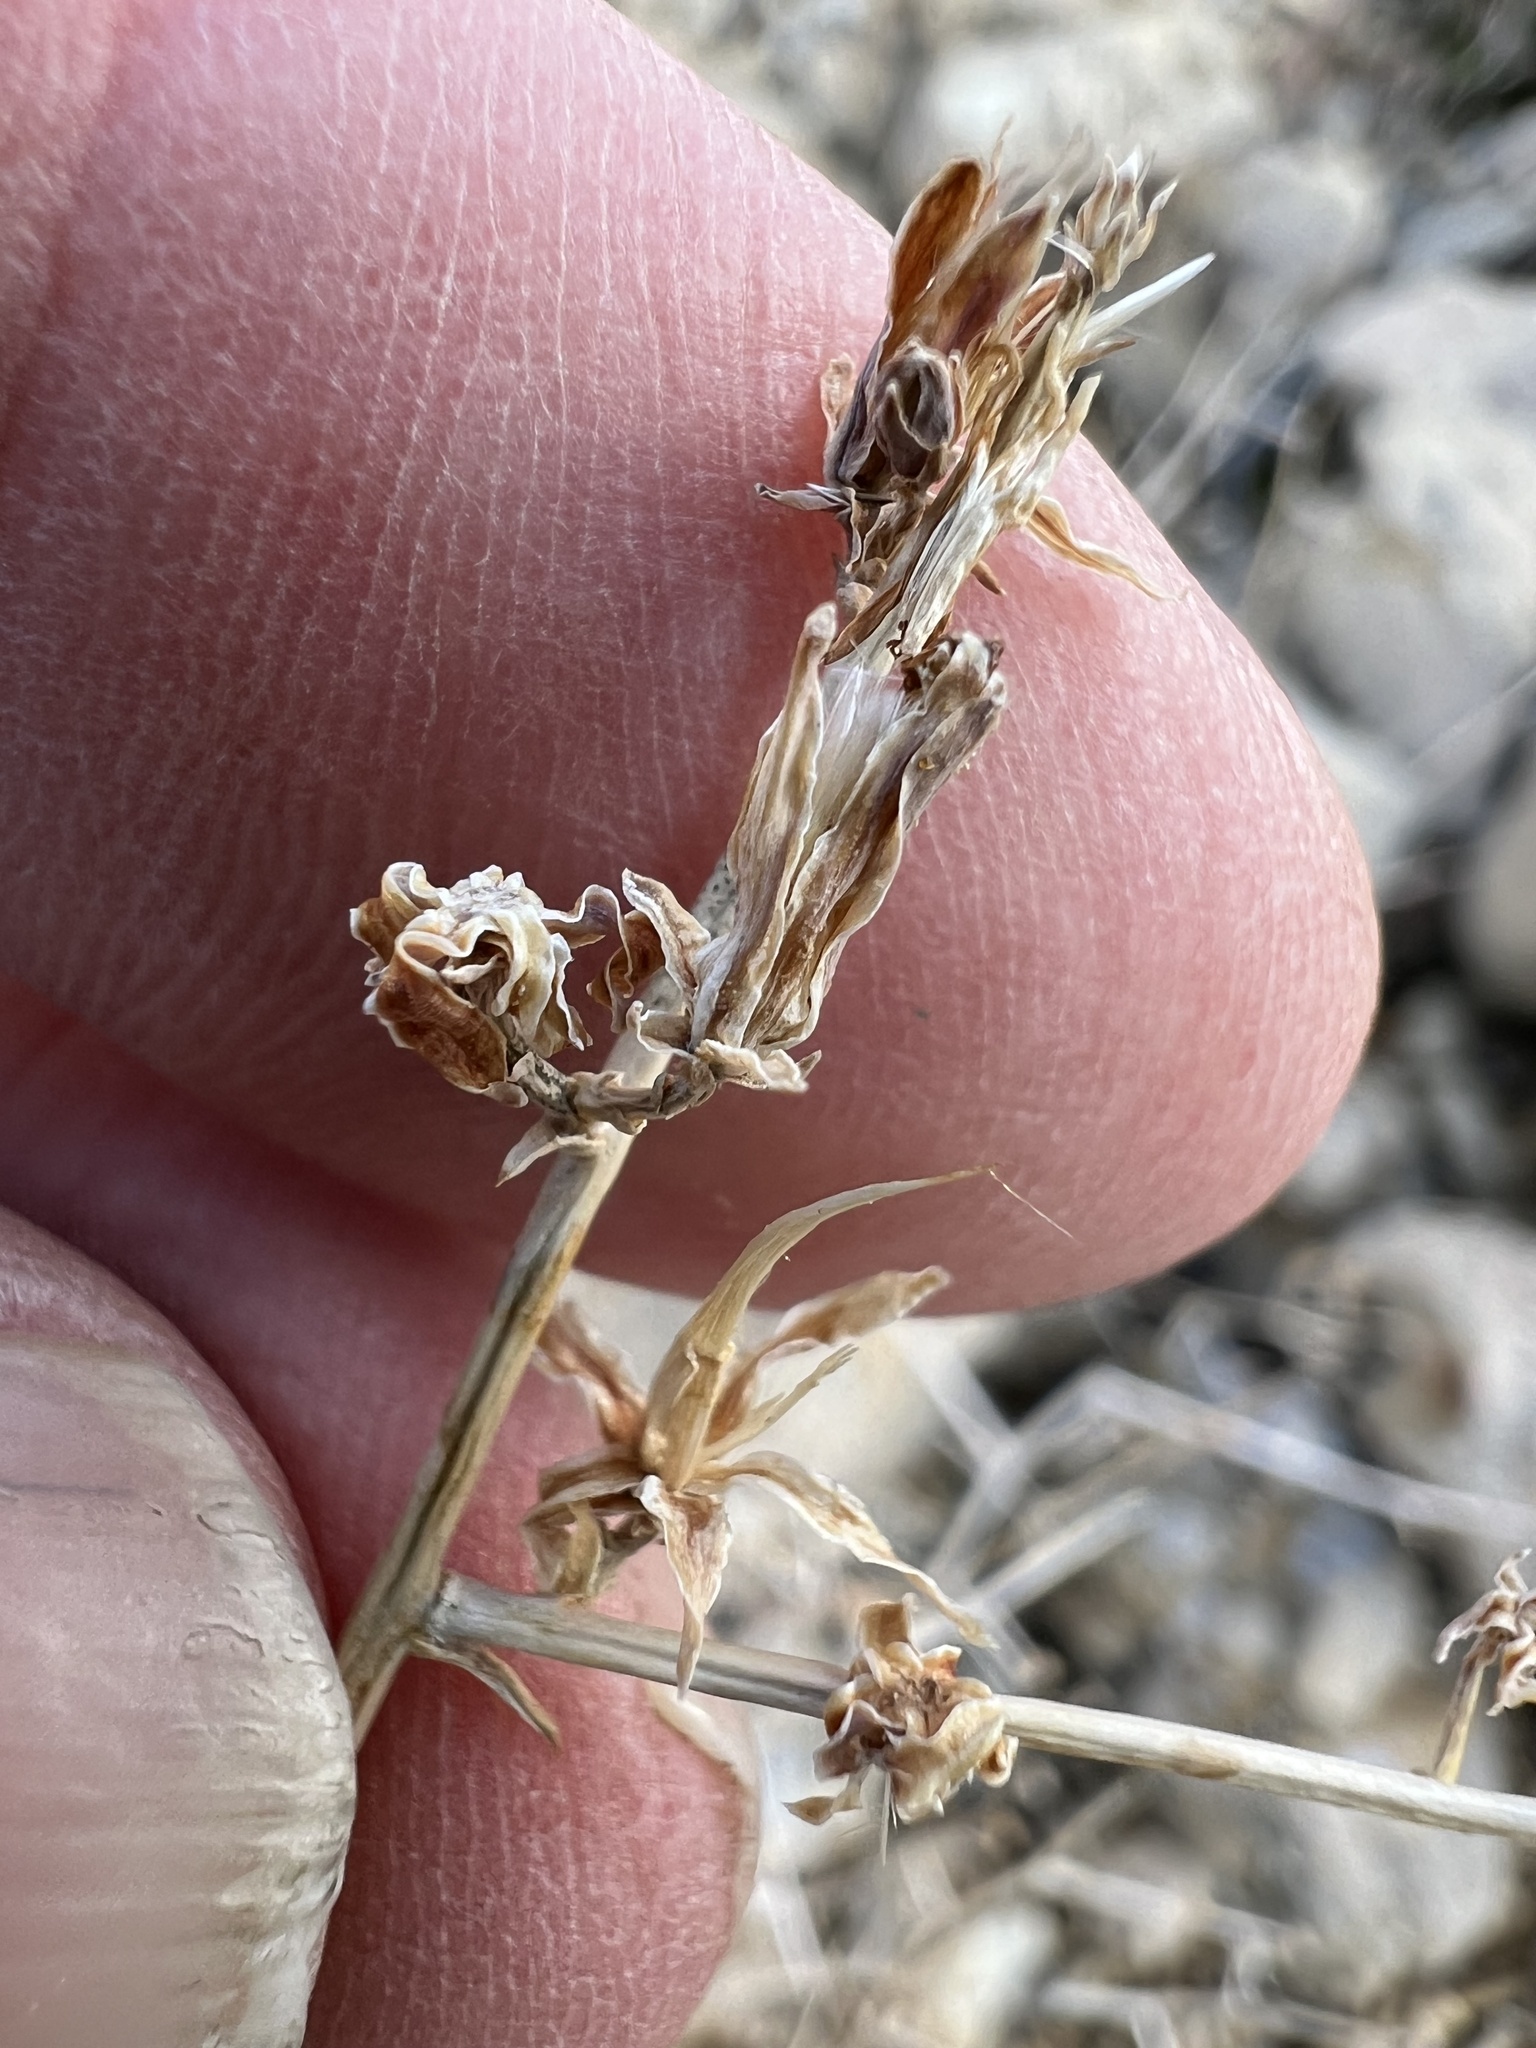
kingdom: Plantae
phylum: Tracheophyta
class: Magnoliopsida
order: Asterales
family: Asteraceae
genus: Stephanomeria
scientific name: Stephanomeria pauciflora
